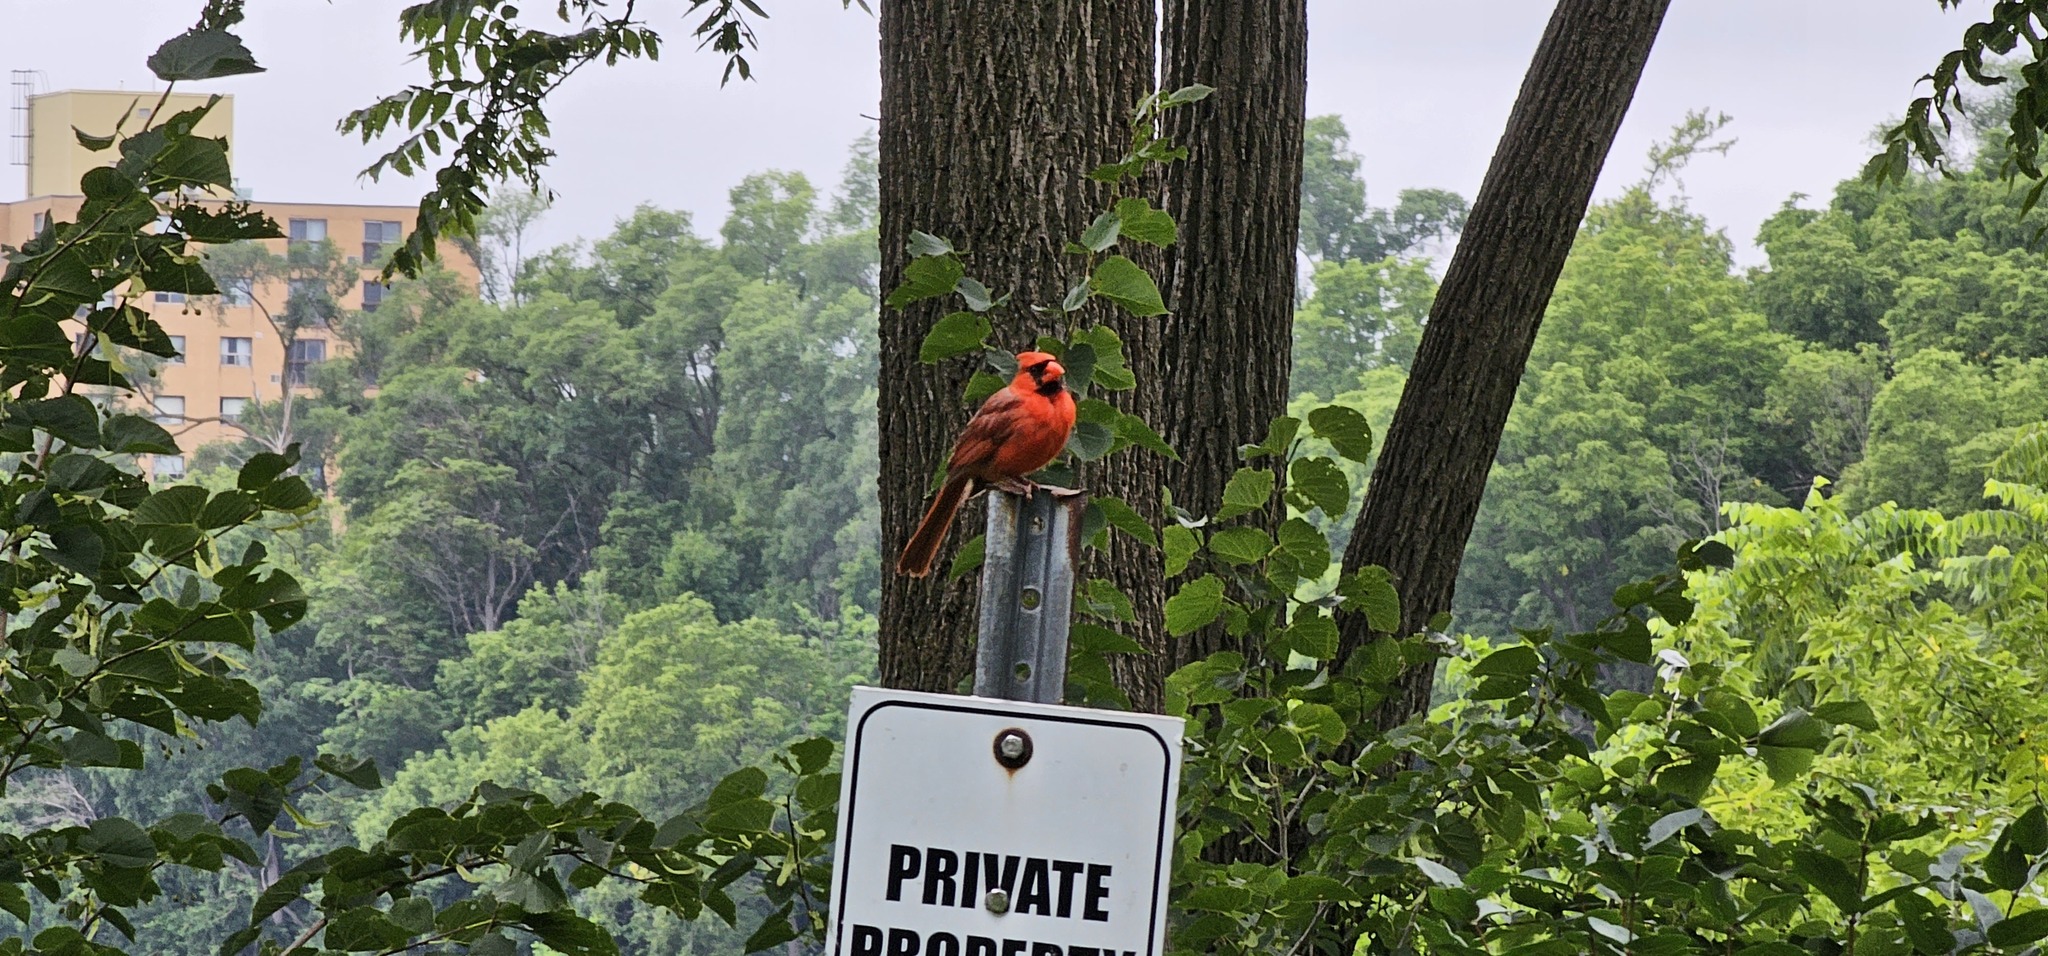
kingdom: Animalia
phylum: Chordata
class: Aves
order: Passeriformes
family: Cardinalidae
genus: Cardinalis
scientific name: Cardinalis cardinalis
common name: Northern cardinal
